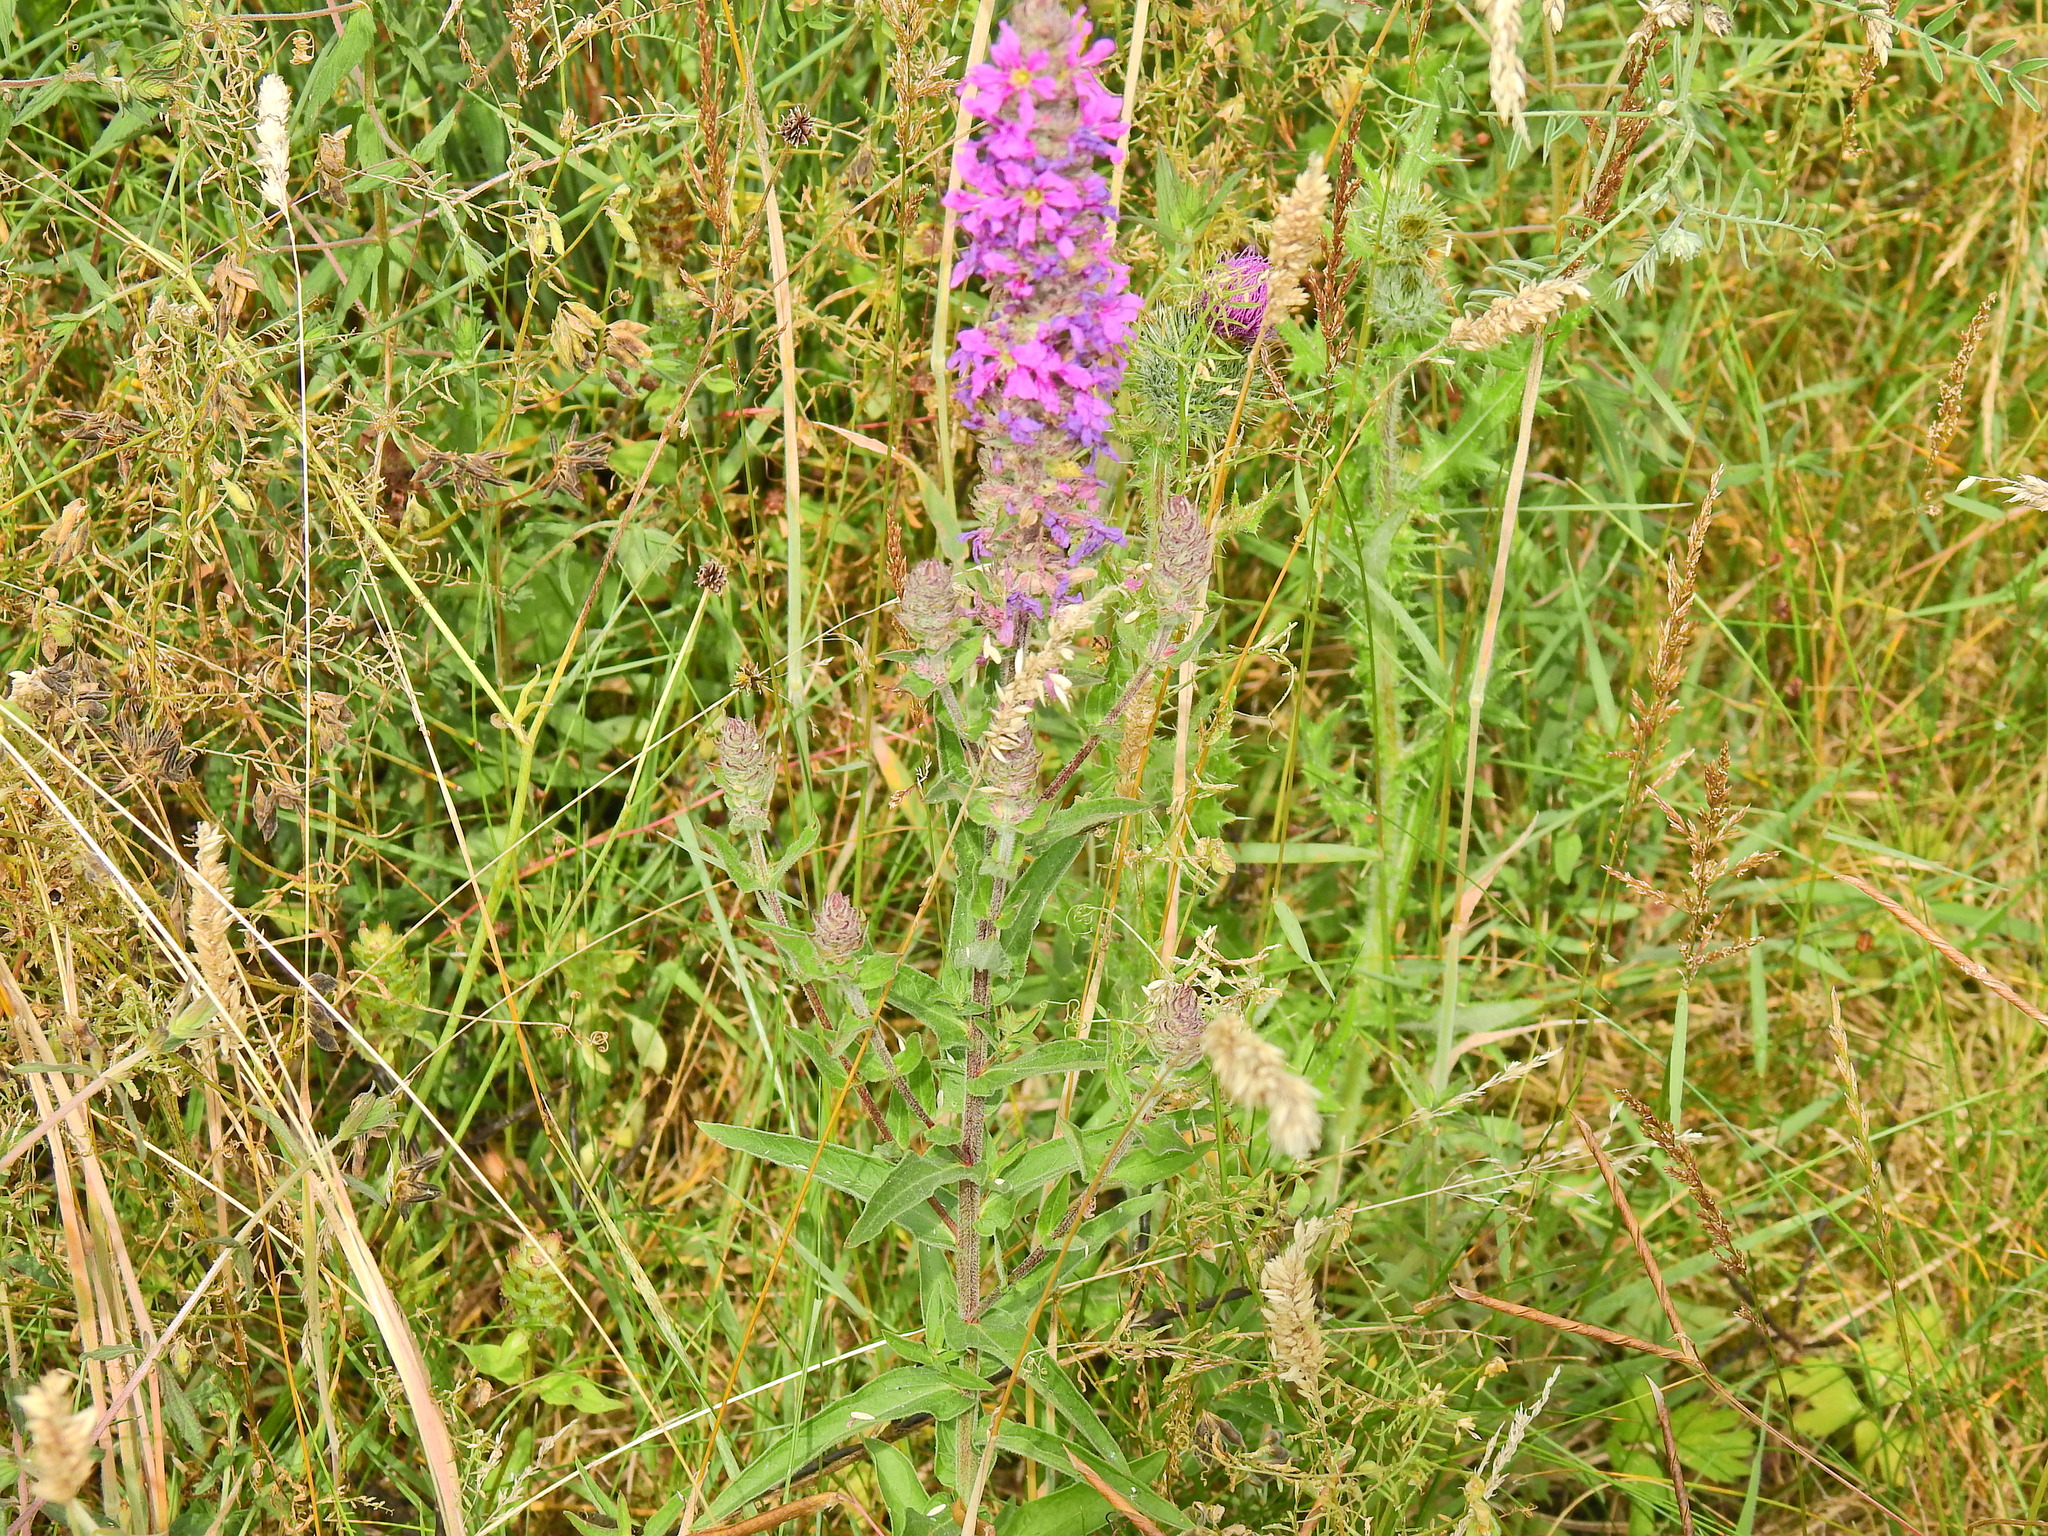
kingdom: Plantae
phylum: Tracheophyta
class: Magnoliopsida
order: Myrtales
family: Lythraceae
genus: Lythrum
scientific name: Lythrum salicaria
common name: Purple loosestrife
